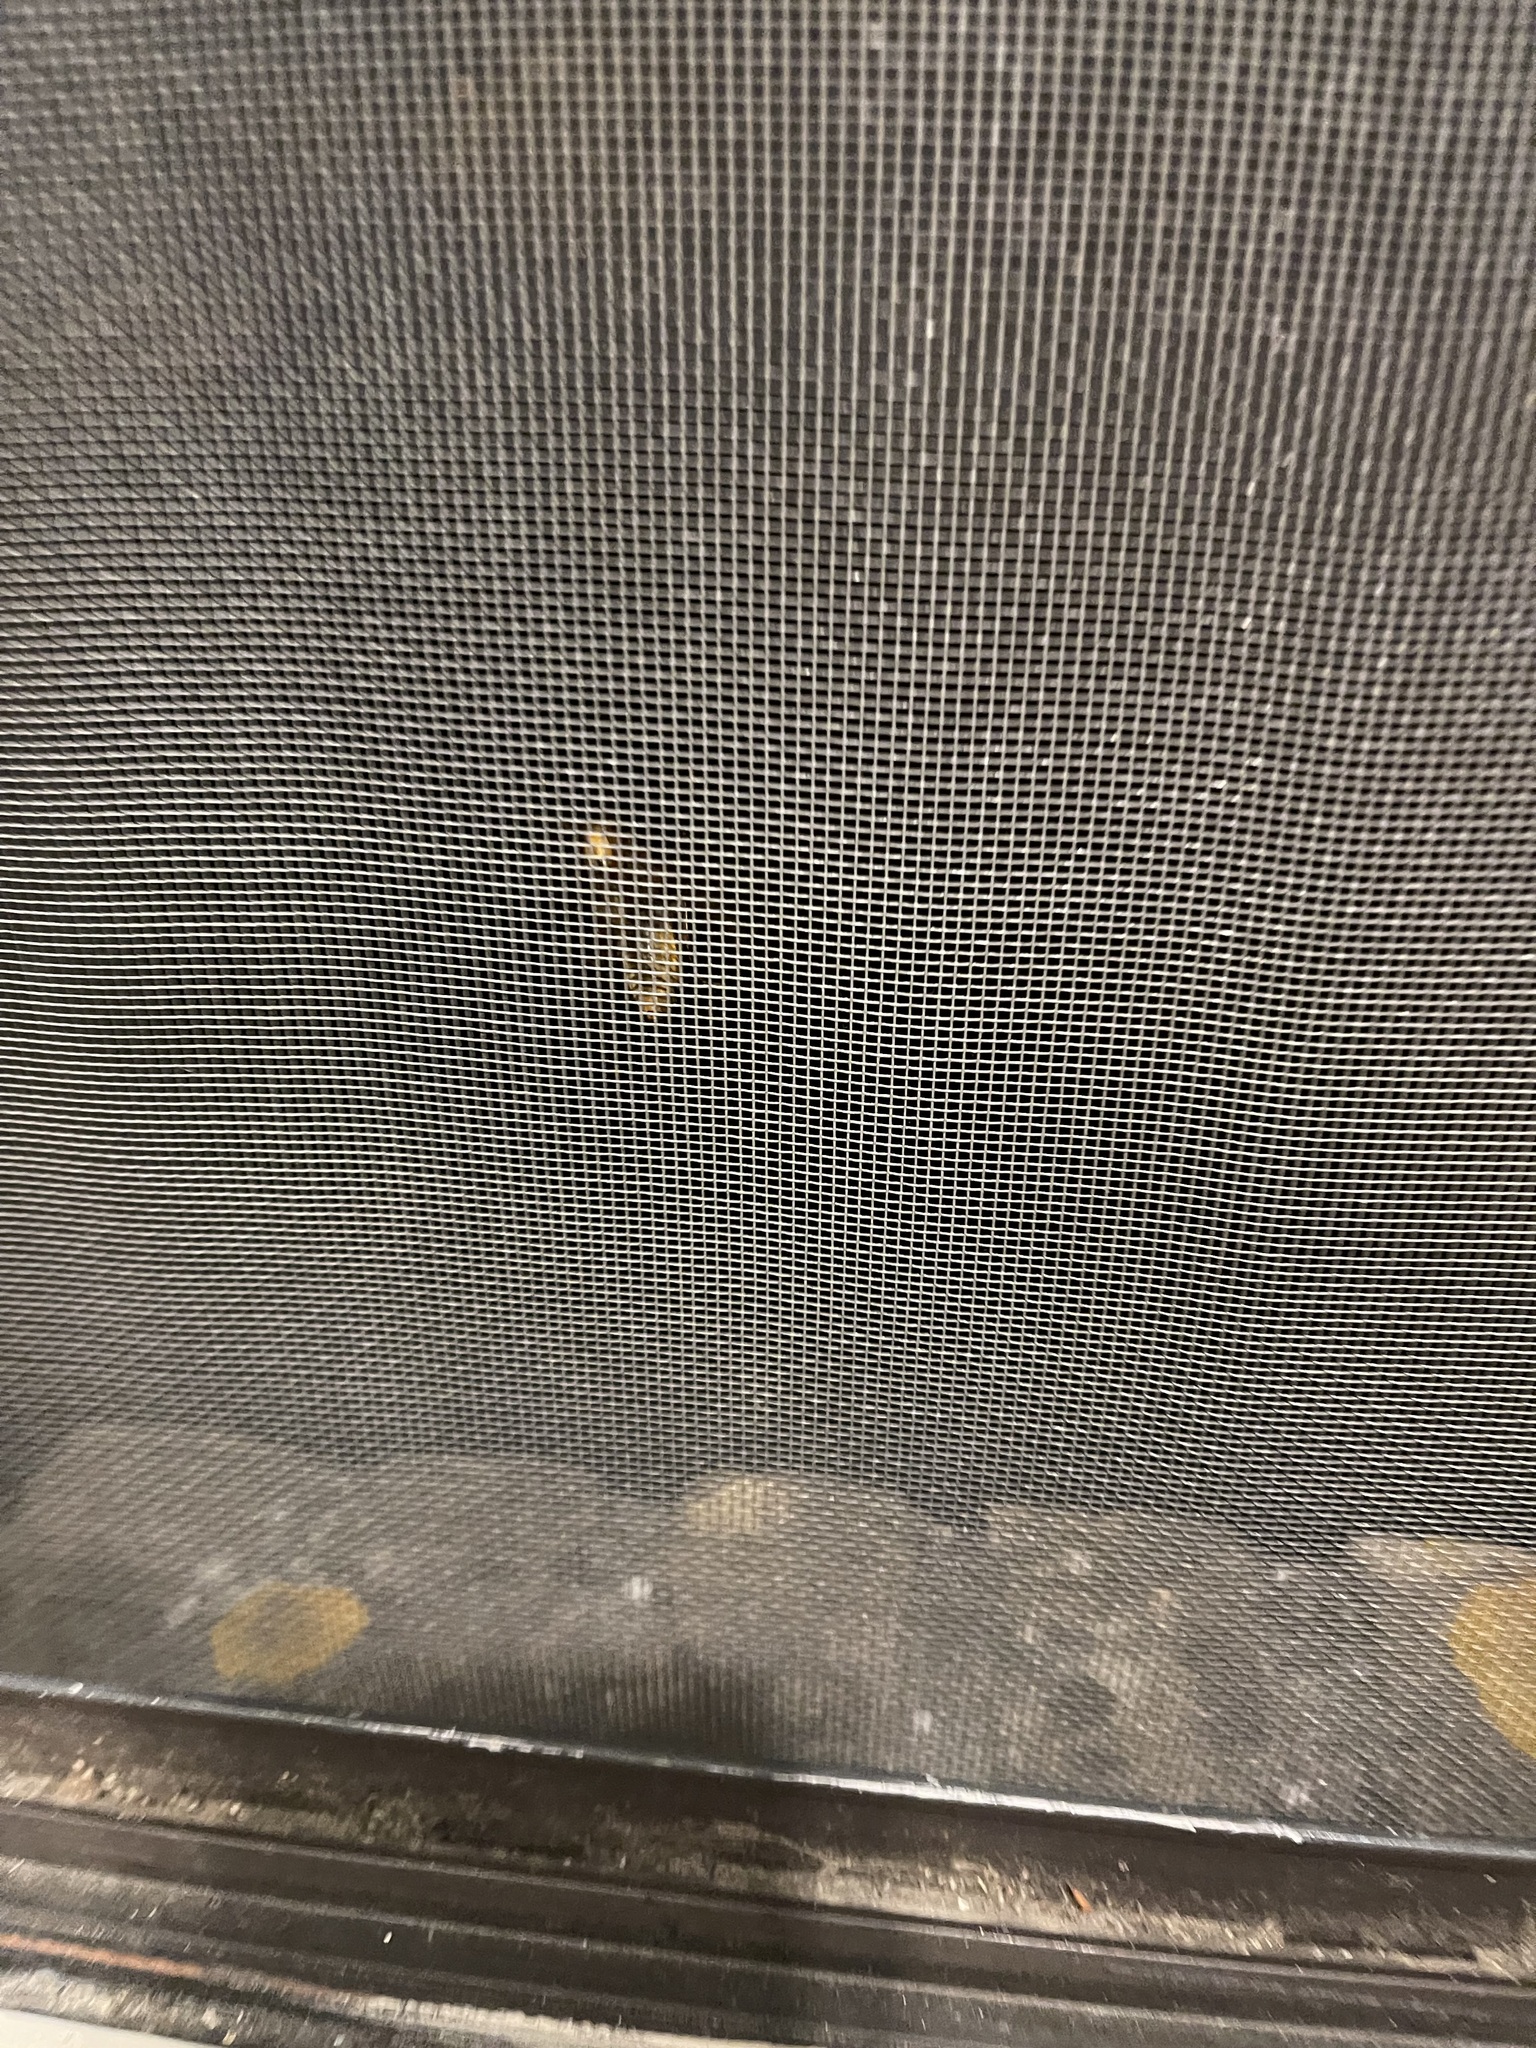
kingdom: Animalia
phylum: Arthropoda
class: Insecta
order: Hymenoptera
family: Vespidae
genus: Vespa
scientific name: Vespa crabro
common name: Hornet
